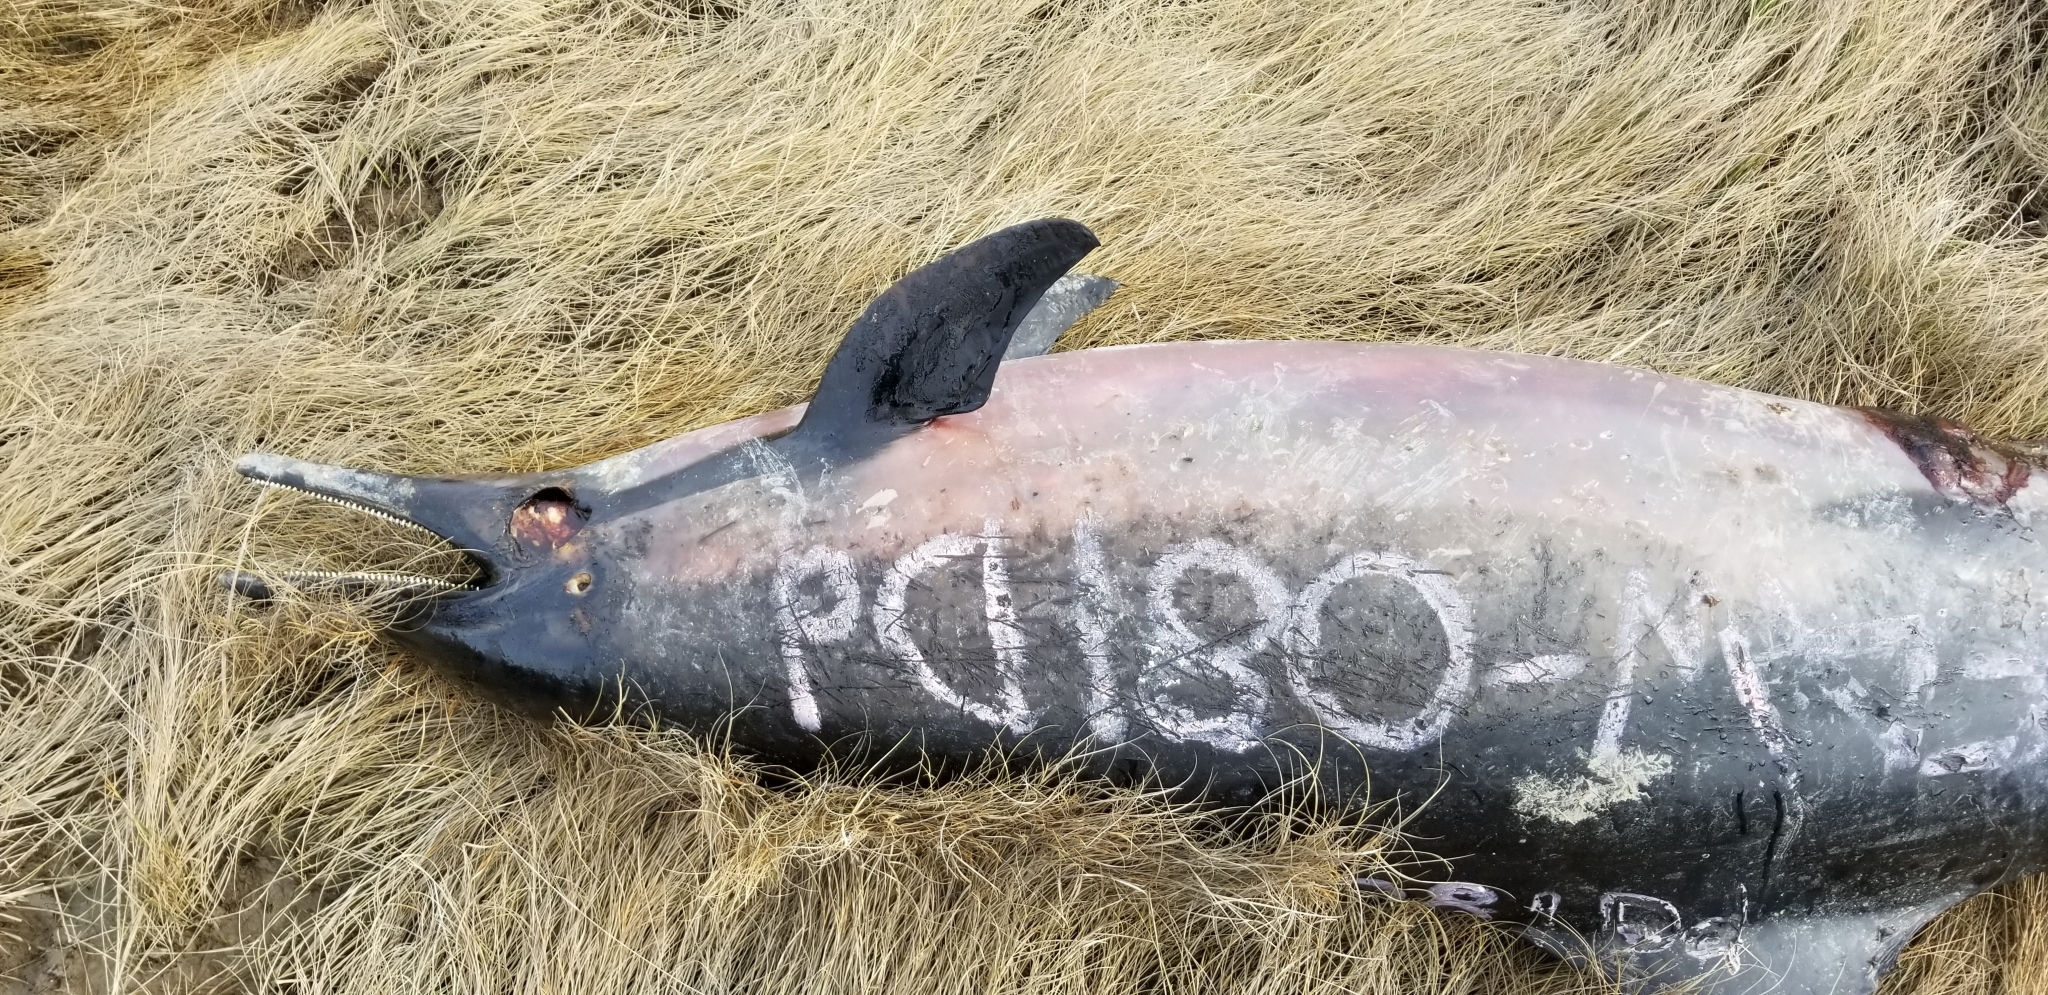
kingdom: Animalia
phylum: Chordata
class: Mammalia
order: Cetacea
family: Delphinidae
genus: Delphinus
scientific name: Delphinus delphis
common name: Common dolphin
